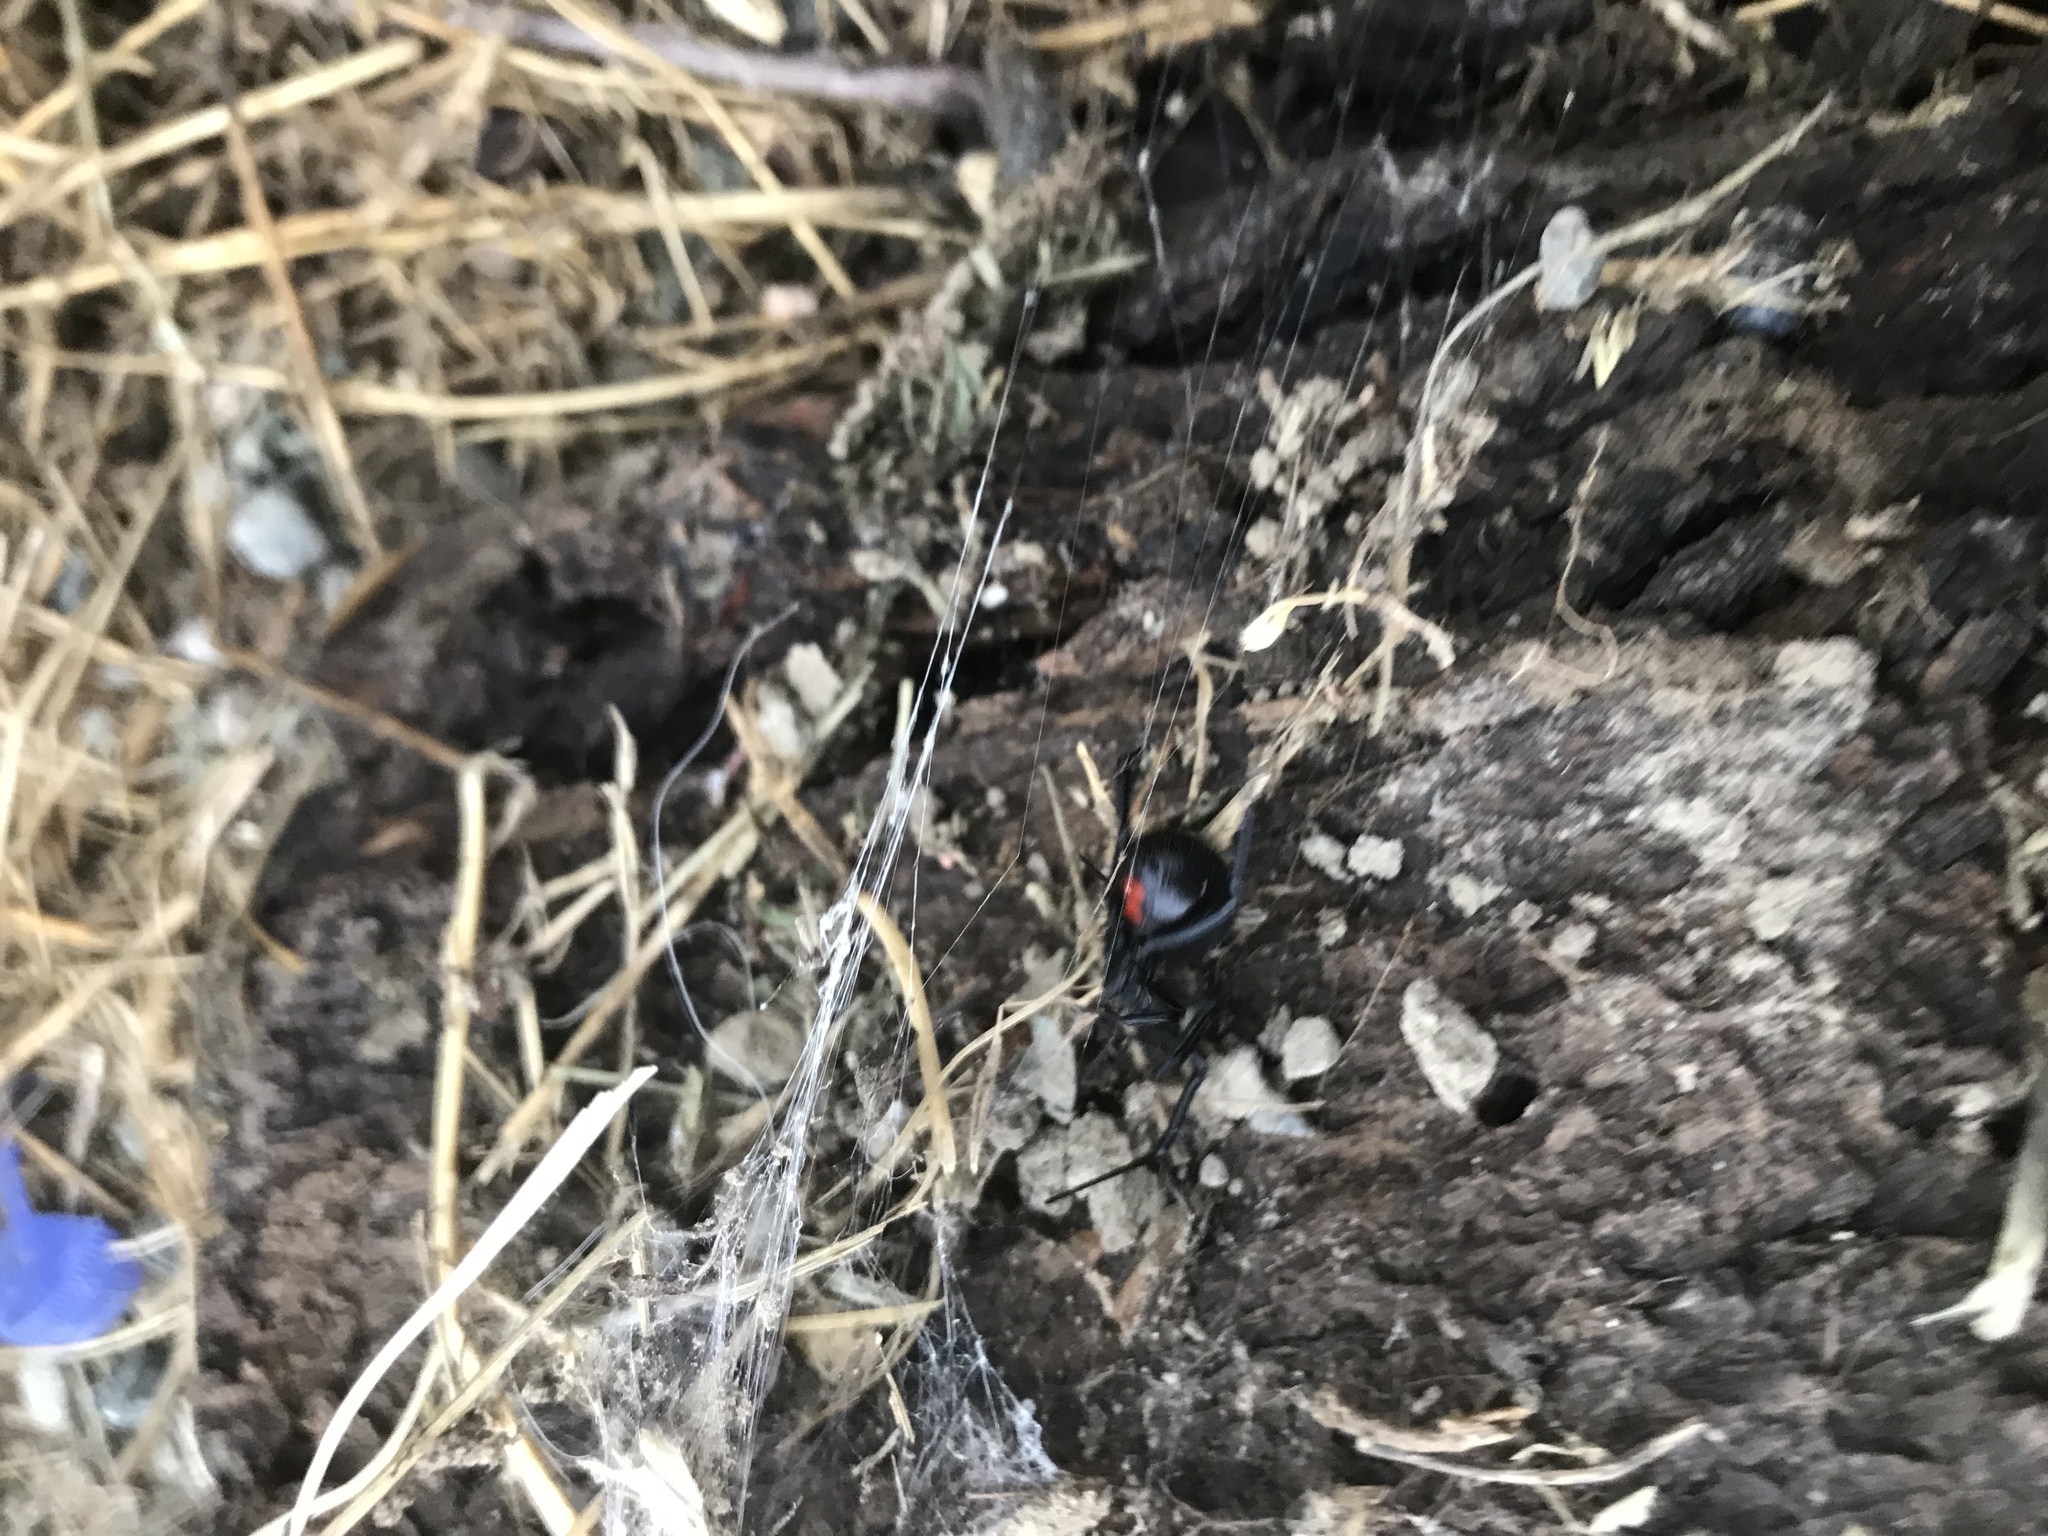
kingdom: Animalia
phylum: Arthropoda
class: Arachnida
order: Araneae
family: Theridiidae
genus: Latrodectus
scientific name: Latrodectus hesperus
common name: Western black widow
